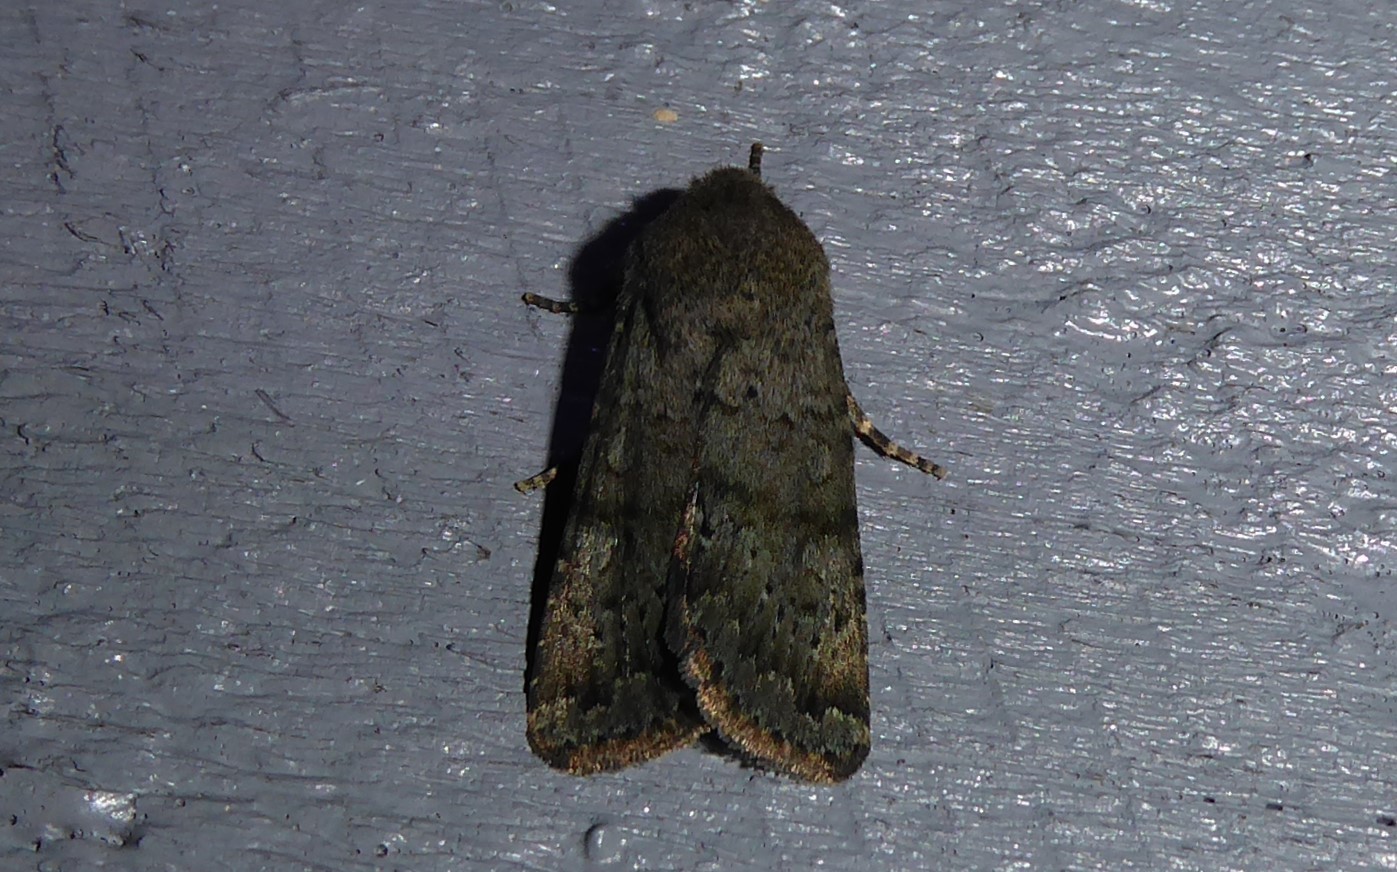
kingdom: Animalia
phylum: Arthropoda
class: Insecta
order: Lepidoptera
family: Noctuidae
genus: Ichneutica
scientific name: Ichneutica moderata
